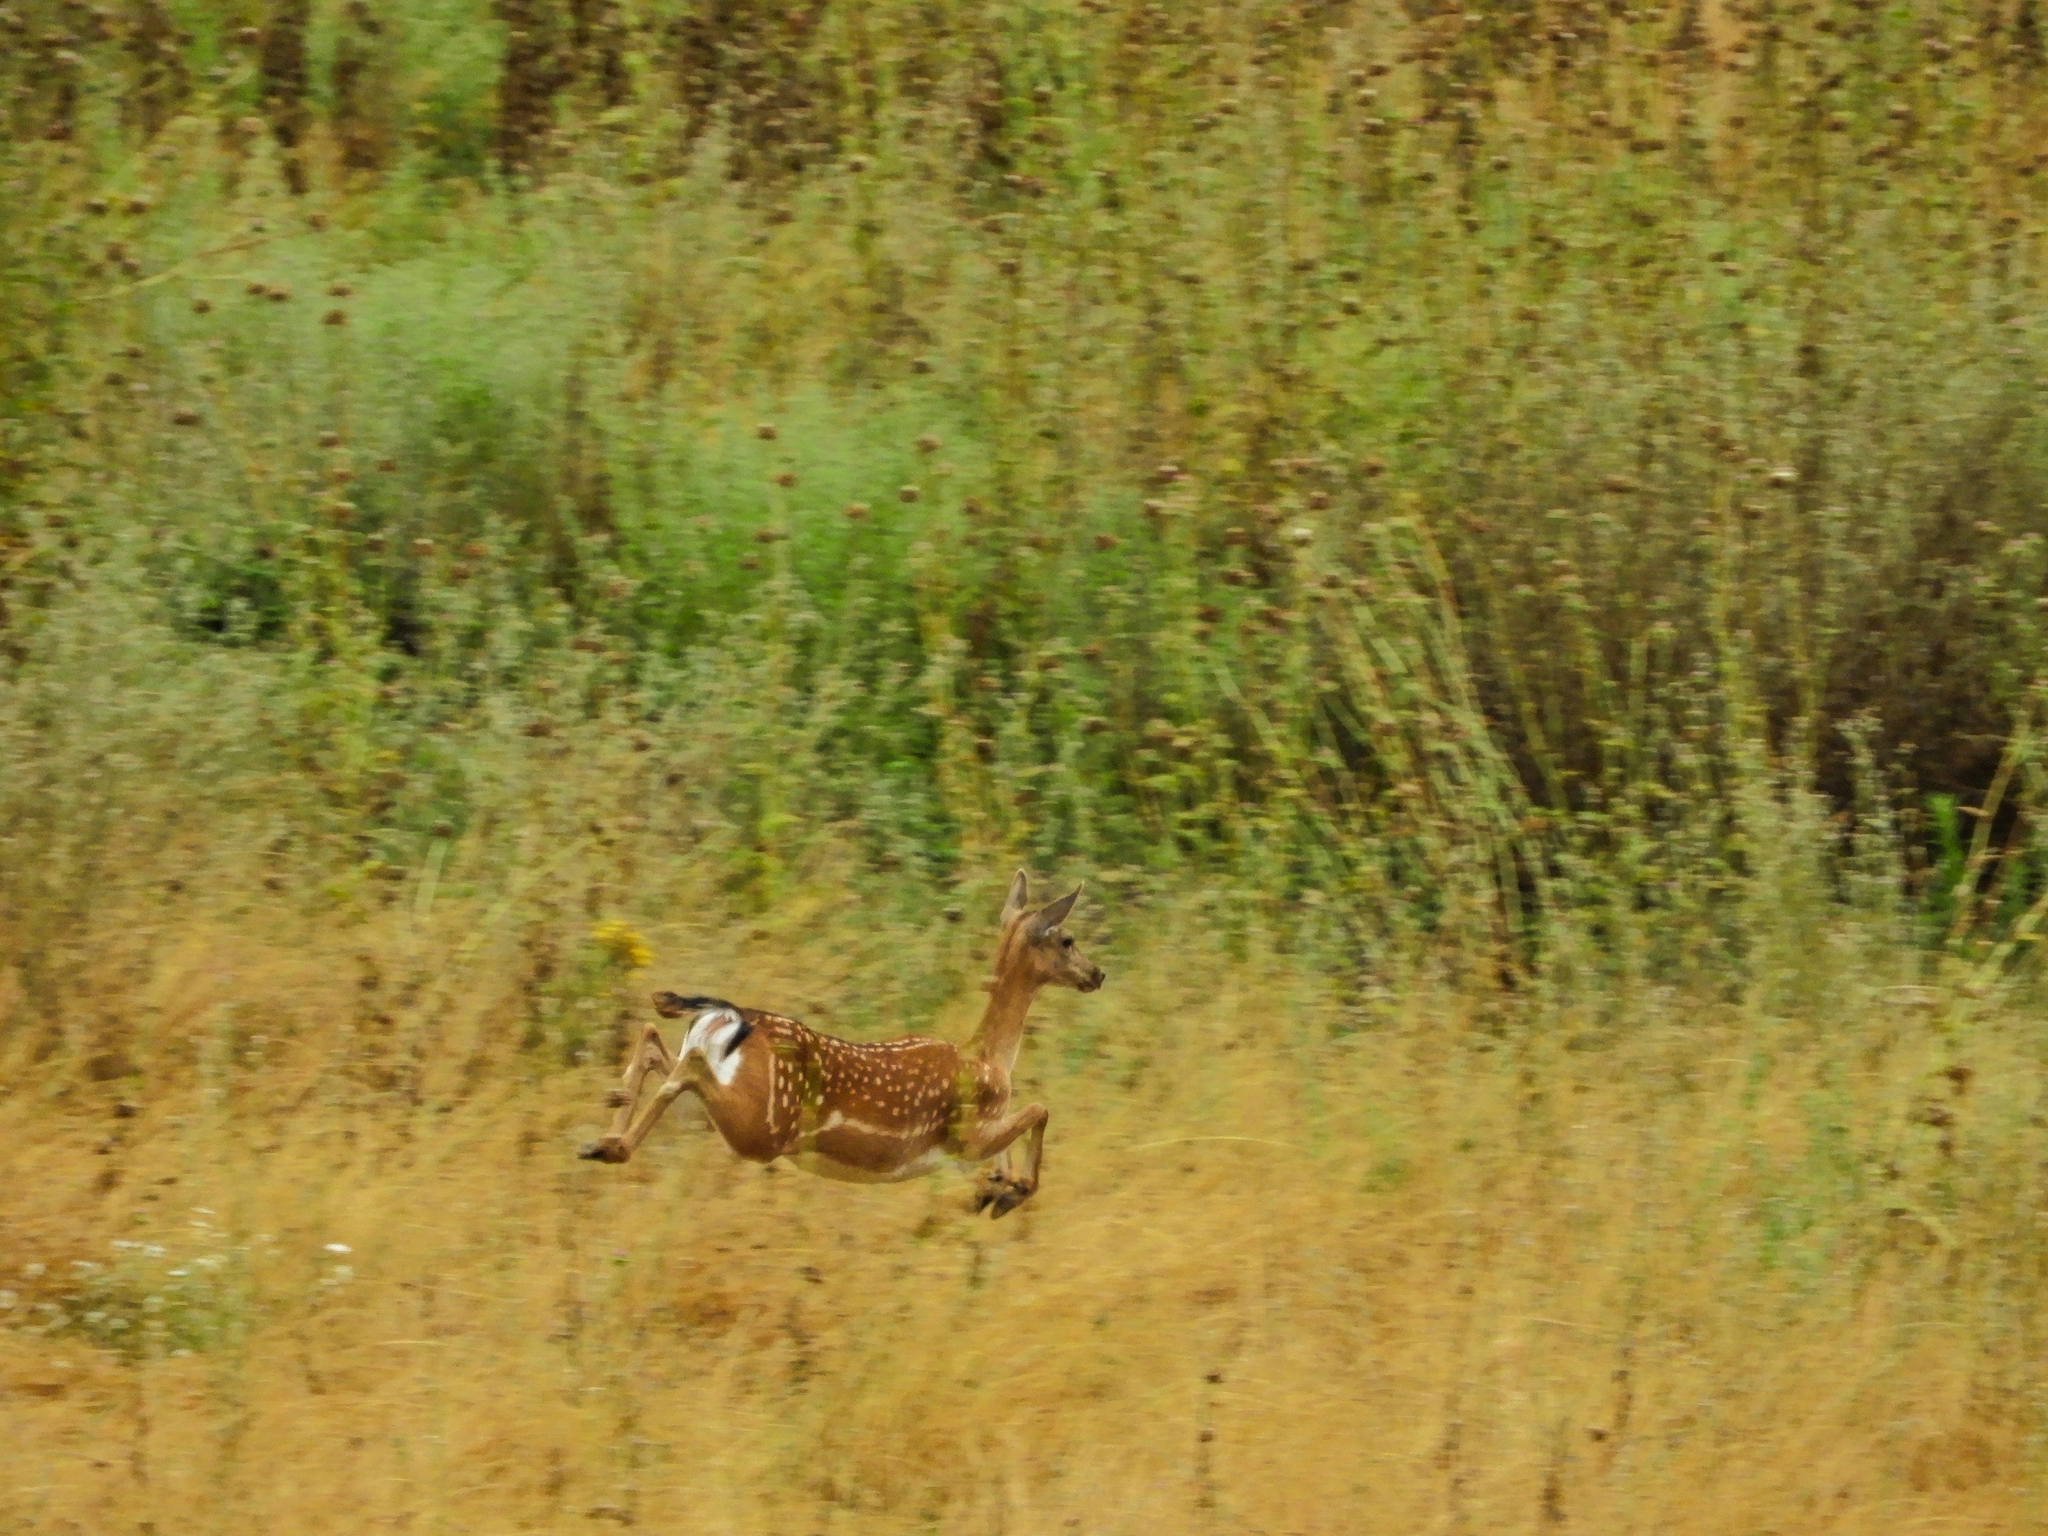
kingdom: Animalia
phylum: Chordata
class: Mammalia
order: Artiodactyla
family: Cervidae
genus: Dama
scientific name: Dama dama
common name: Fallow deer
